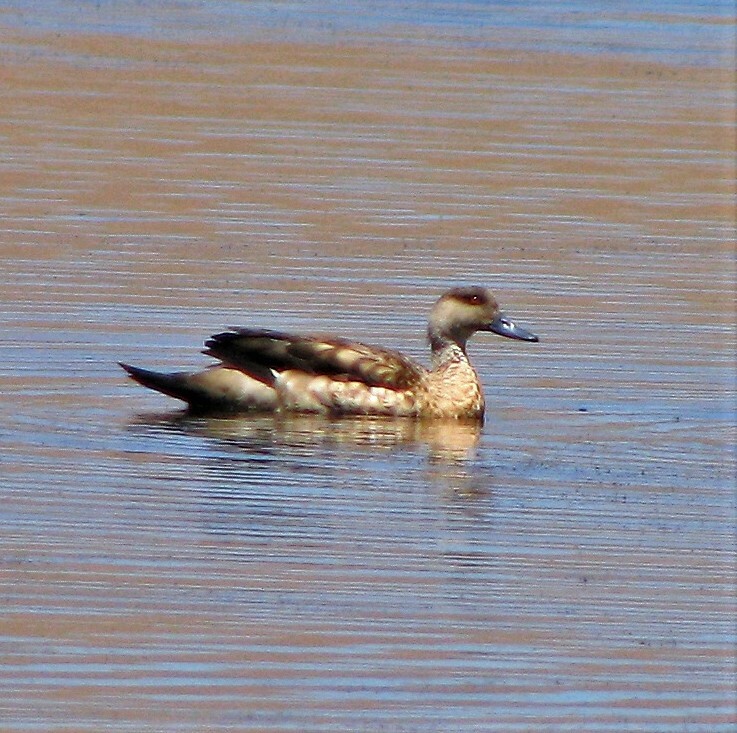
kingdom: Animalia
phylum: Chordata
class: Aves
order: Anseriformes
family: Anatidae
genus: Lophonetta
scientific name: Lophonetta specularioides
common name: Crested duck
